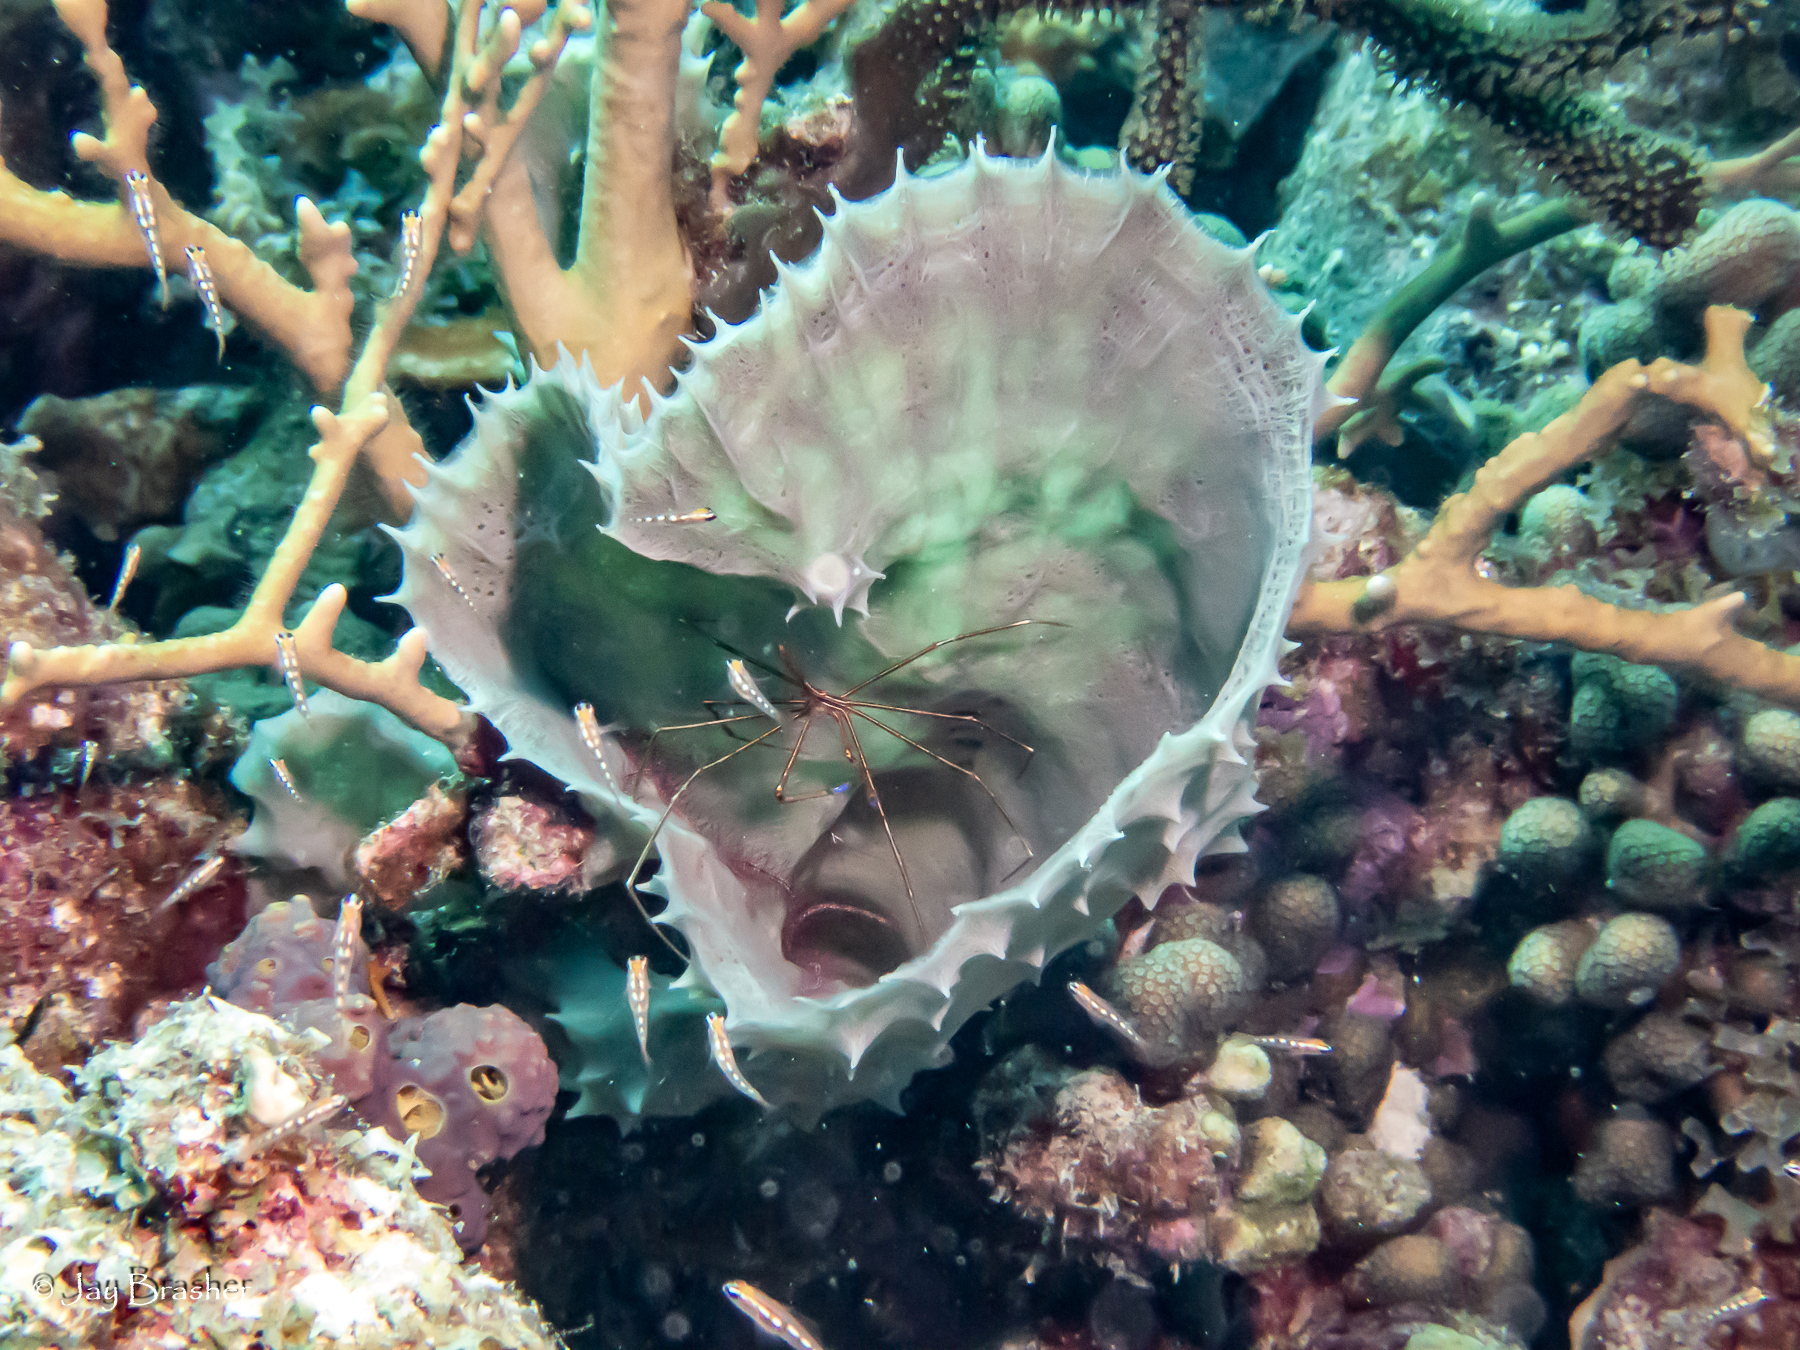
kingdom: Animalia
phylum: Porifera
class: Demospongiae
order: Haplosclerida
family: Callyspongiidae
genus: Callyspongia
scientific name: Callyspongia aculeata
